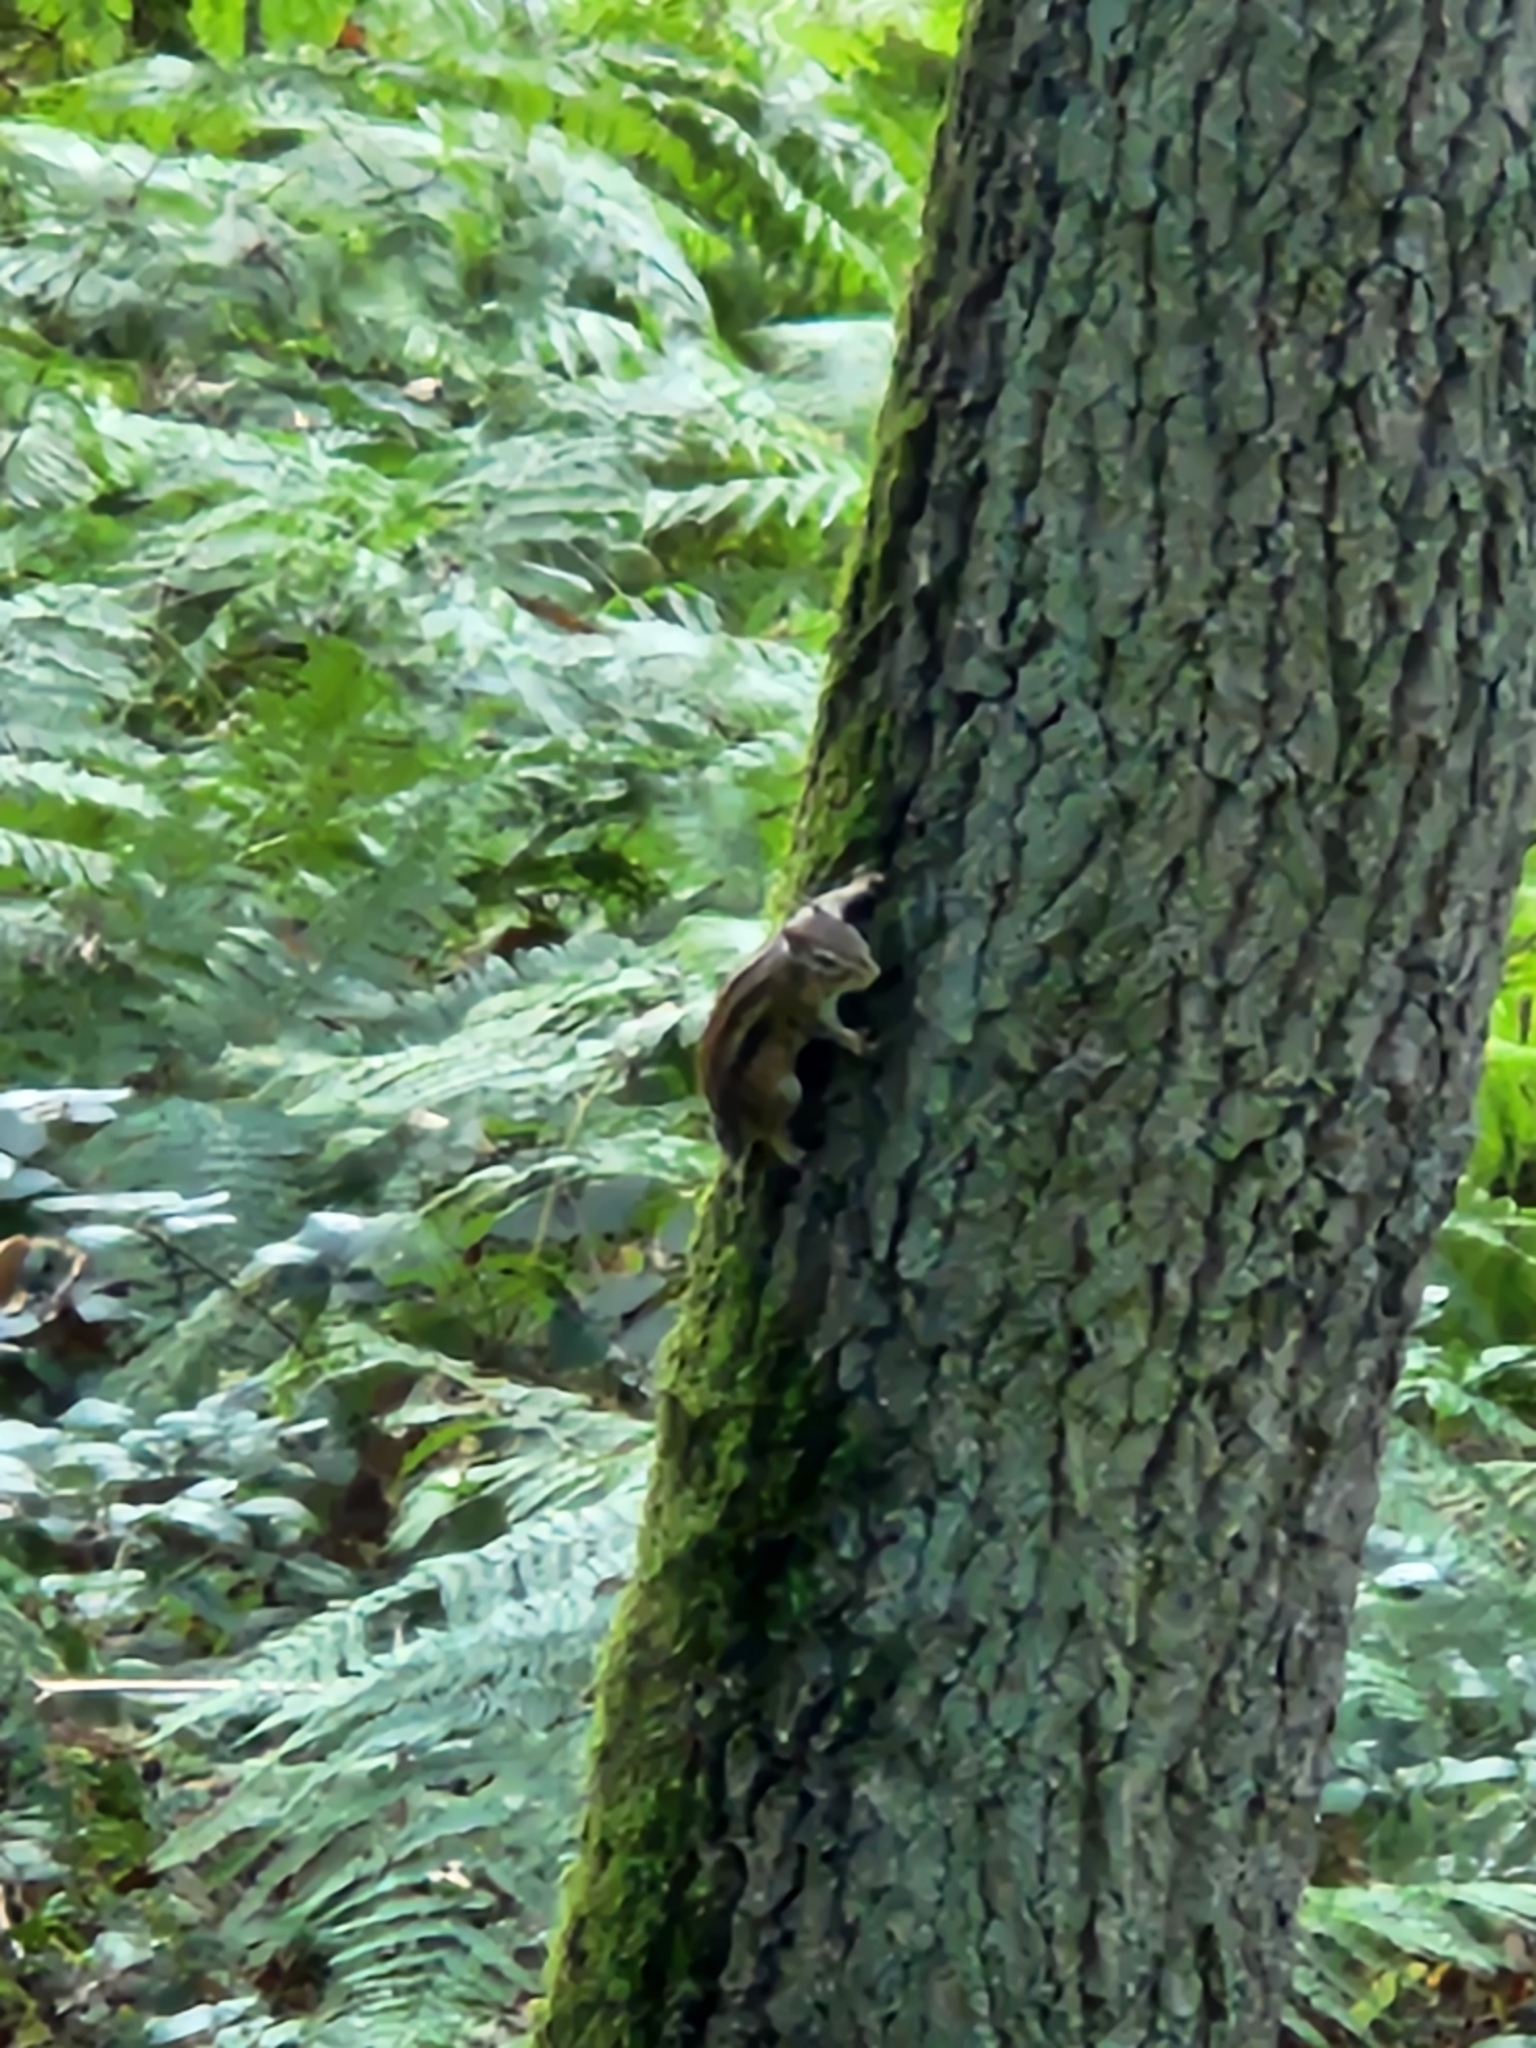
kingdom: Animalia
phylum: Chordata
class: Mammalia
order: Rodentia
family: Sciuridae
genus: Tamias
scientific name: Tamias sibiricus
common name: Siberian chipmunk
